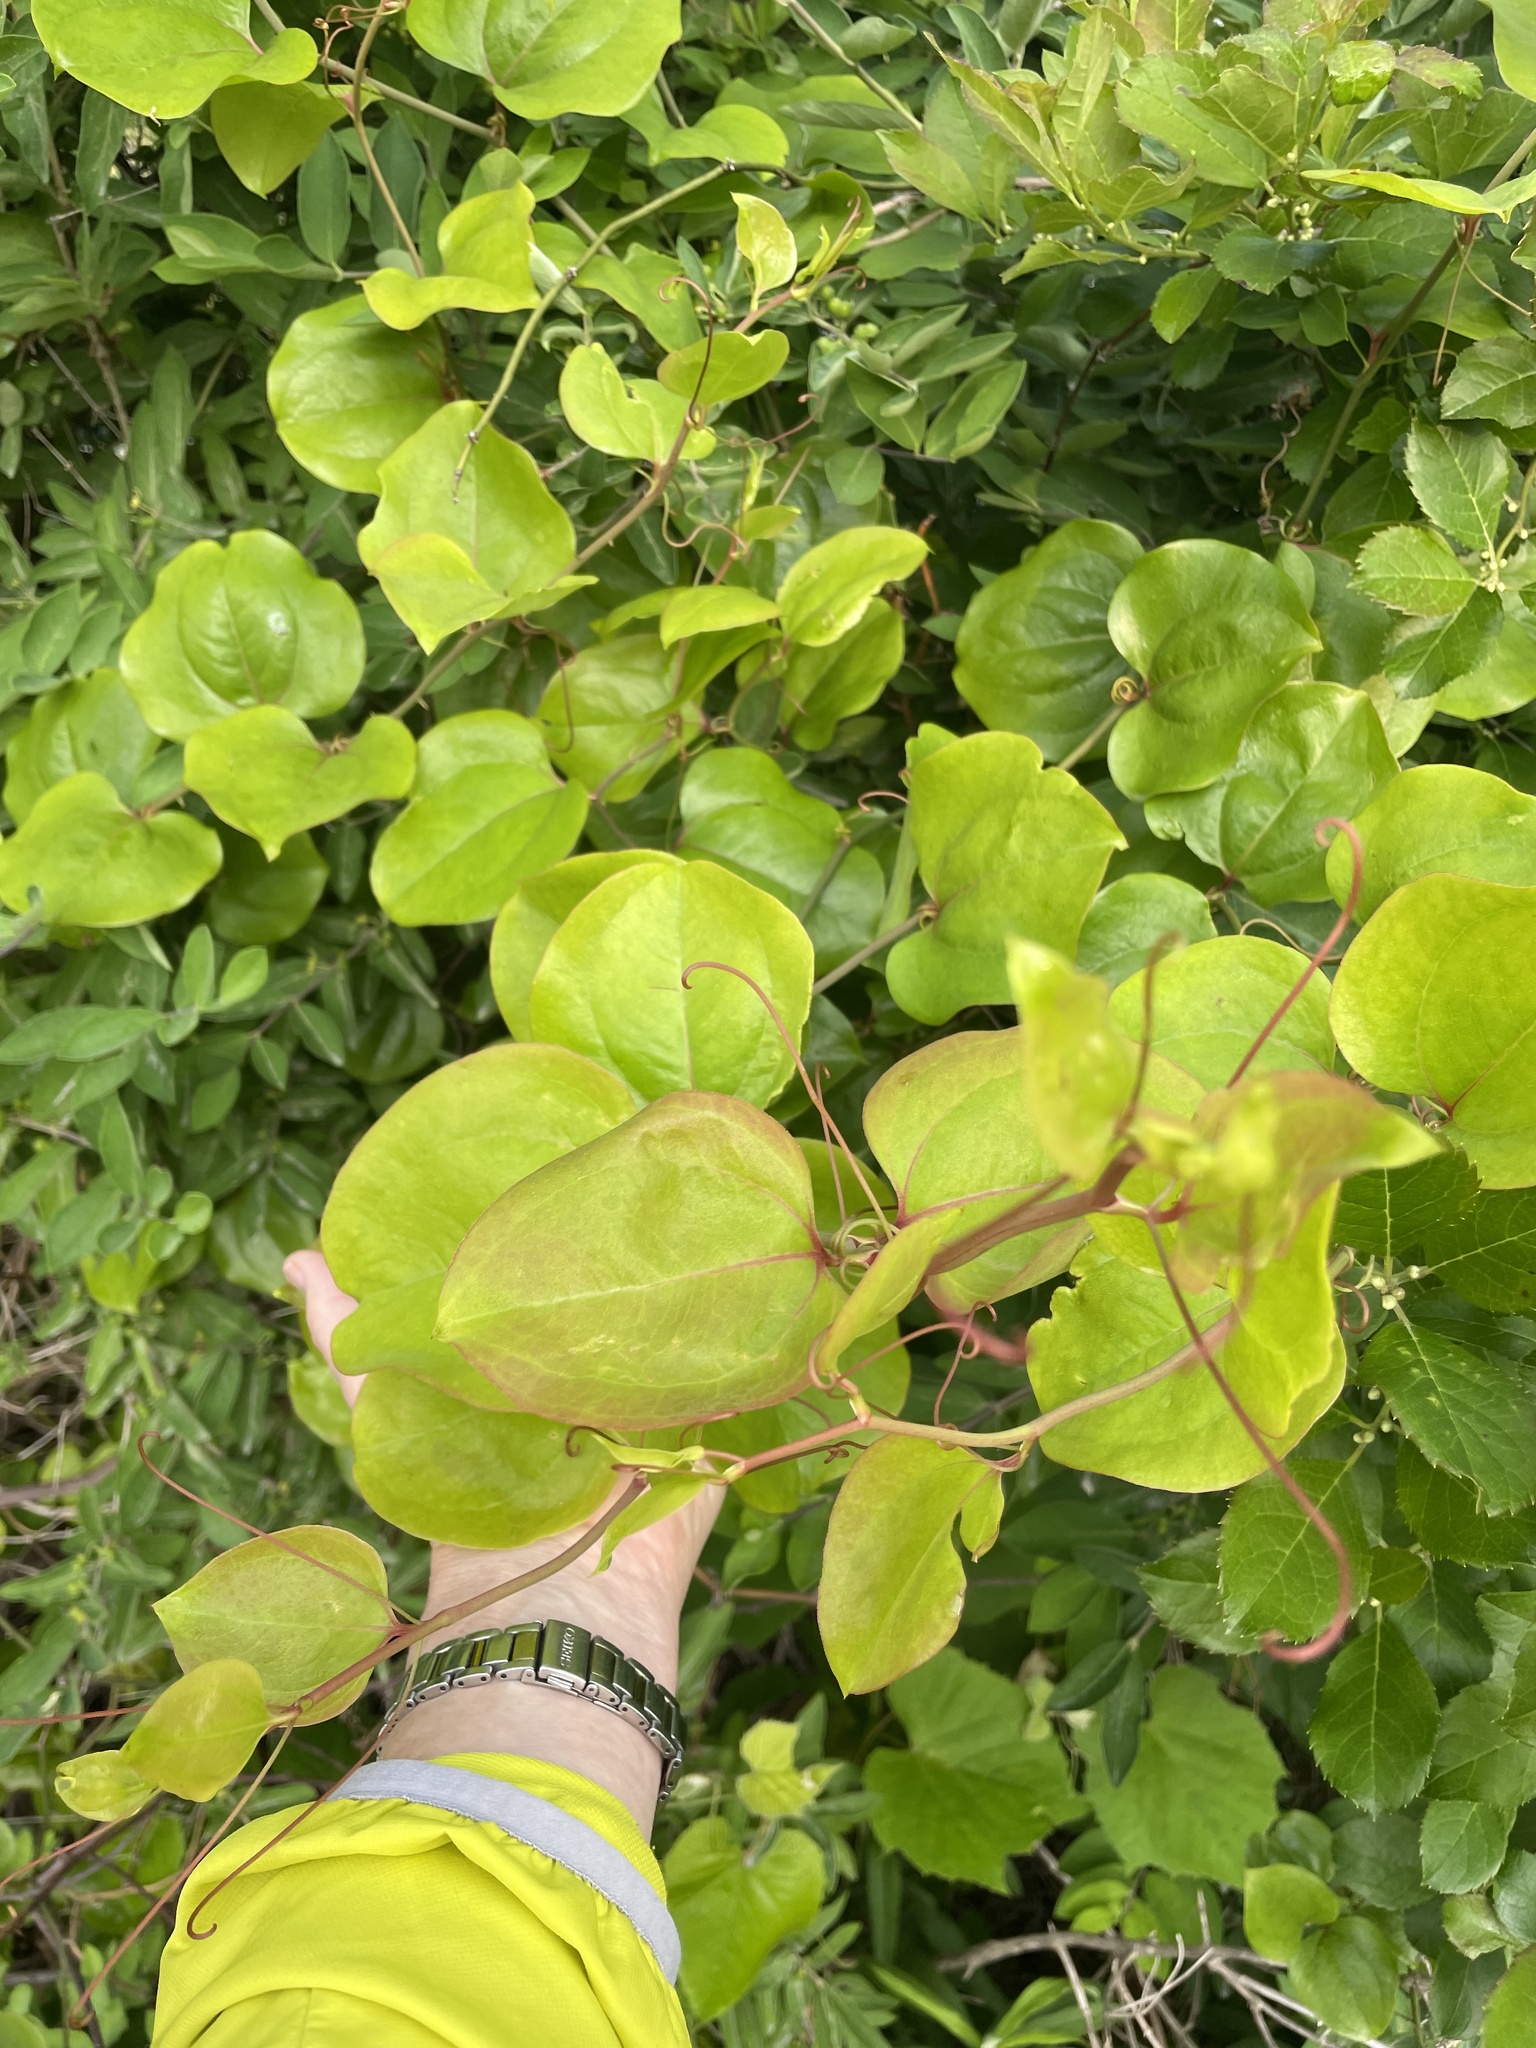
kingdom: Plantae
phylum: Tracheophyta
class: Liliopsida
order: Liliales
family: Smilacaceae
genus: Smilax
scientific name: Smilax rotundifolia
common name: Bullbriar
